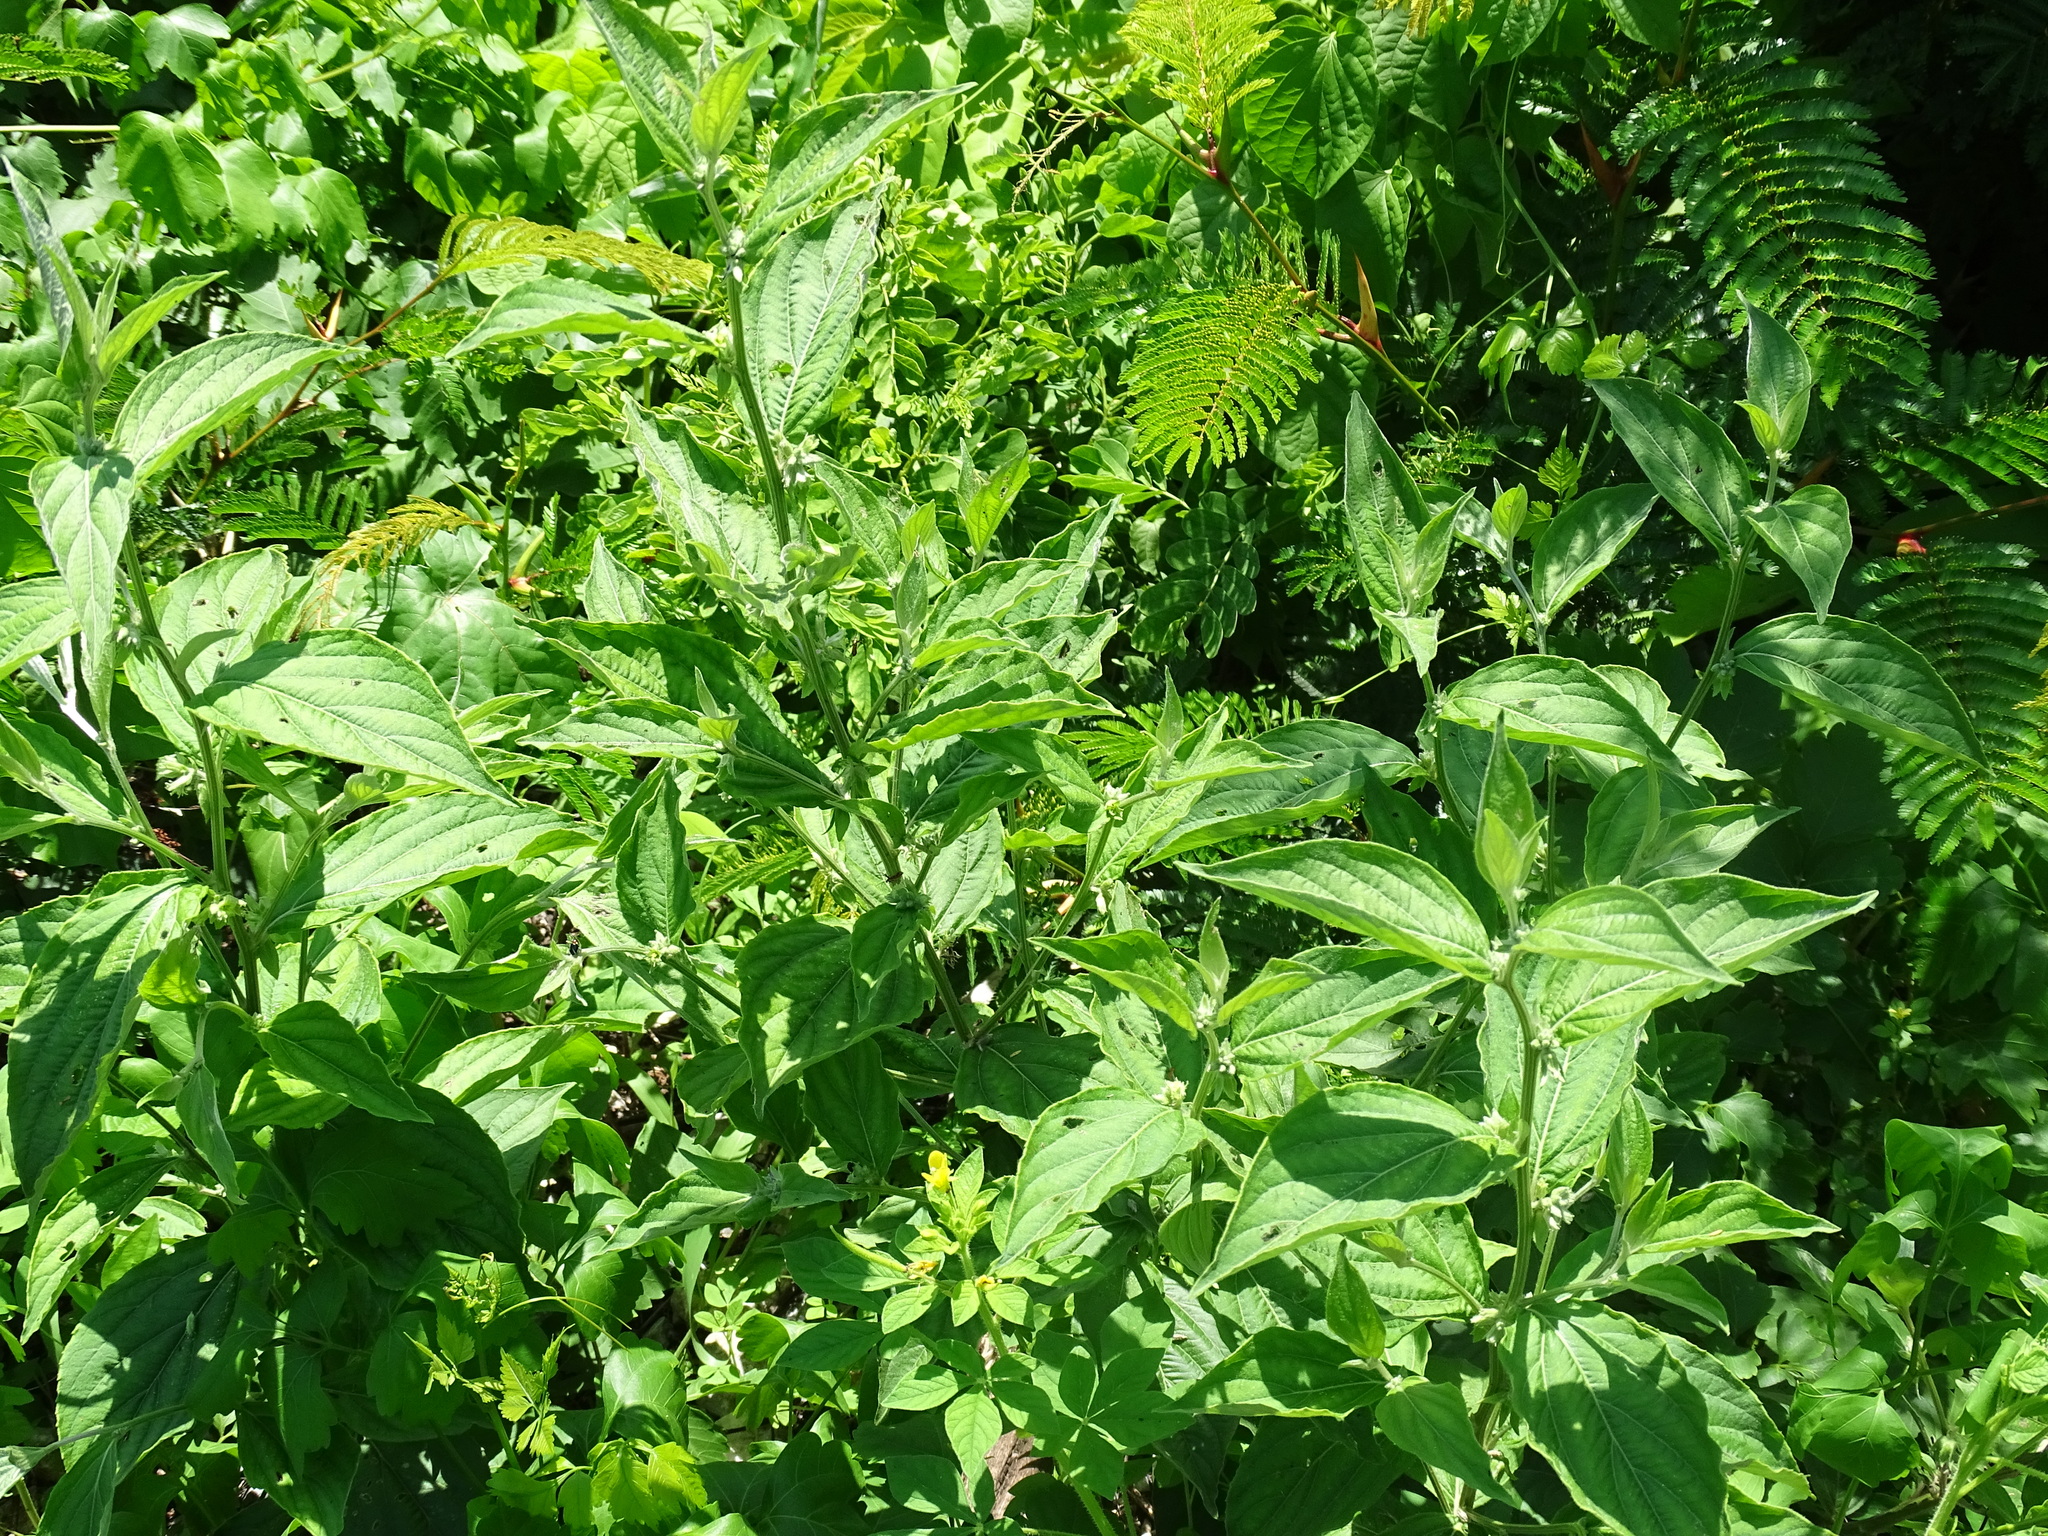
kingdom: Plantae
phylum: Tracheophyta
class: Magnoliopsida
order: Malpighiales
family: Euphorbiaceae
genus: Ditaxis
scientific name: Ditaxis guatemalensis
